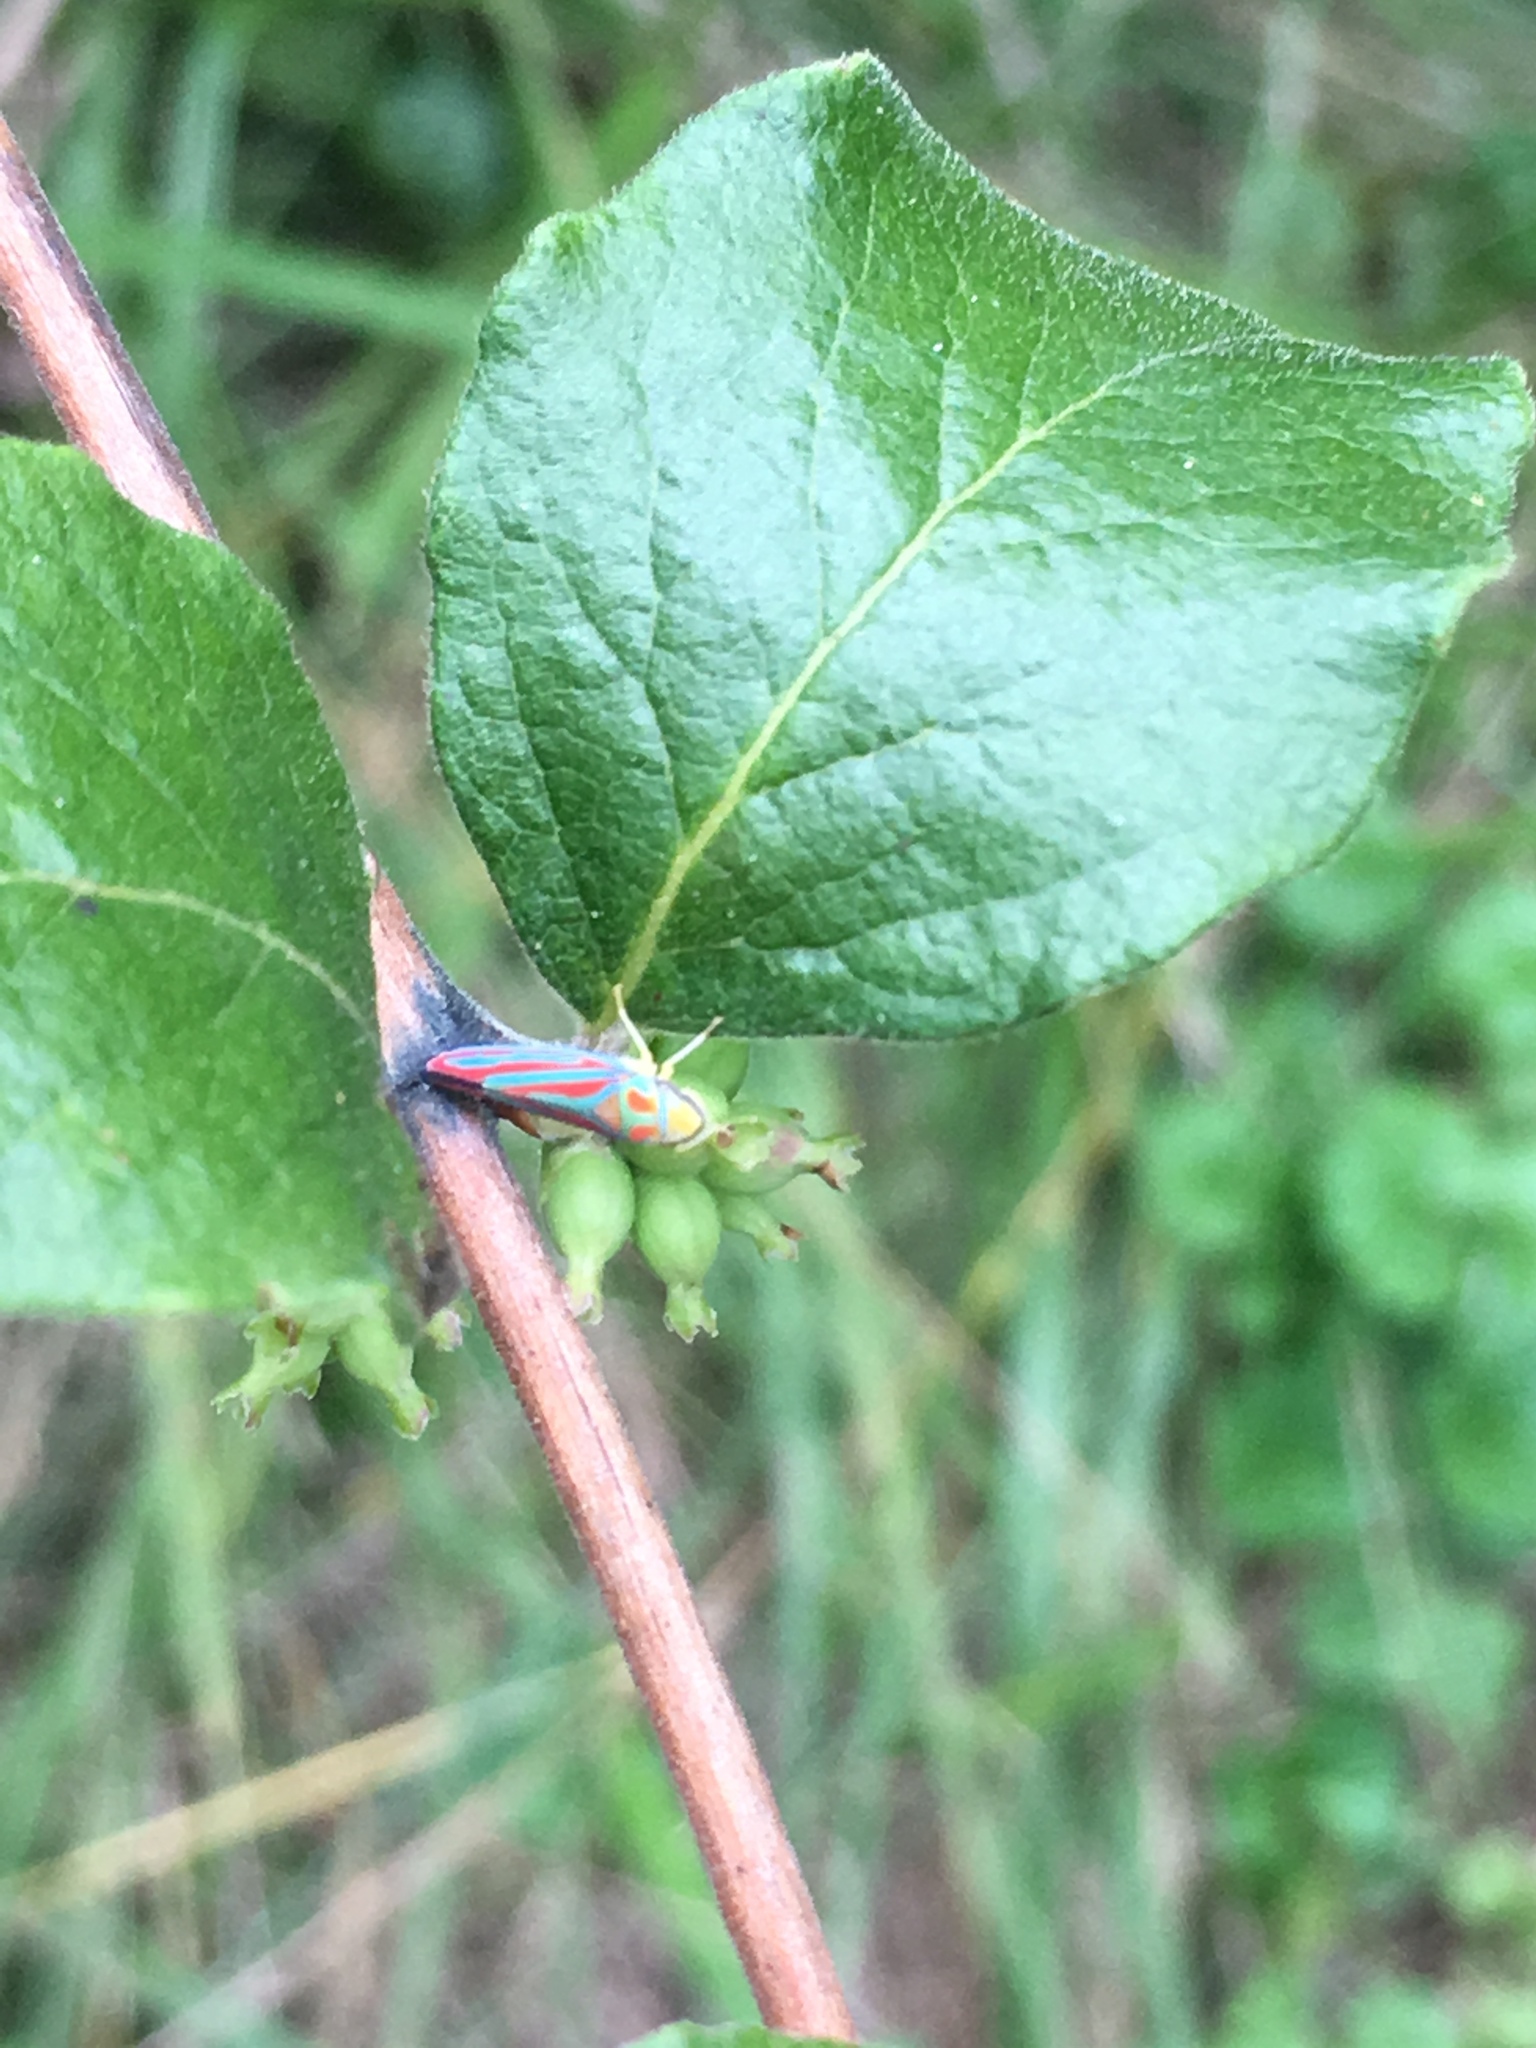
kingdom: Animalia
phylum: Arthropoda
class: Insecta
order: Hemiptera
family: Cicadellidae
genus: Graphocephala
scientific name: Graphocephala coccinea
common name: Candy-striped leafhopper
